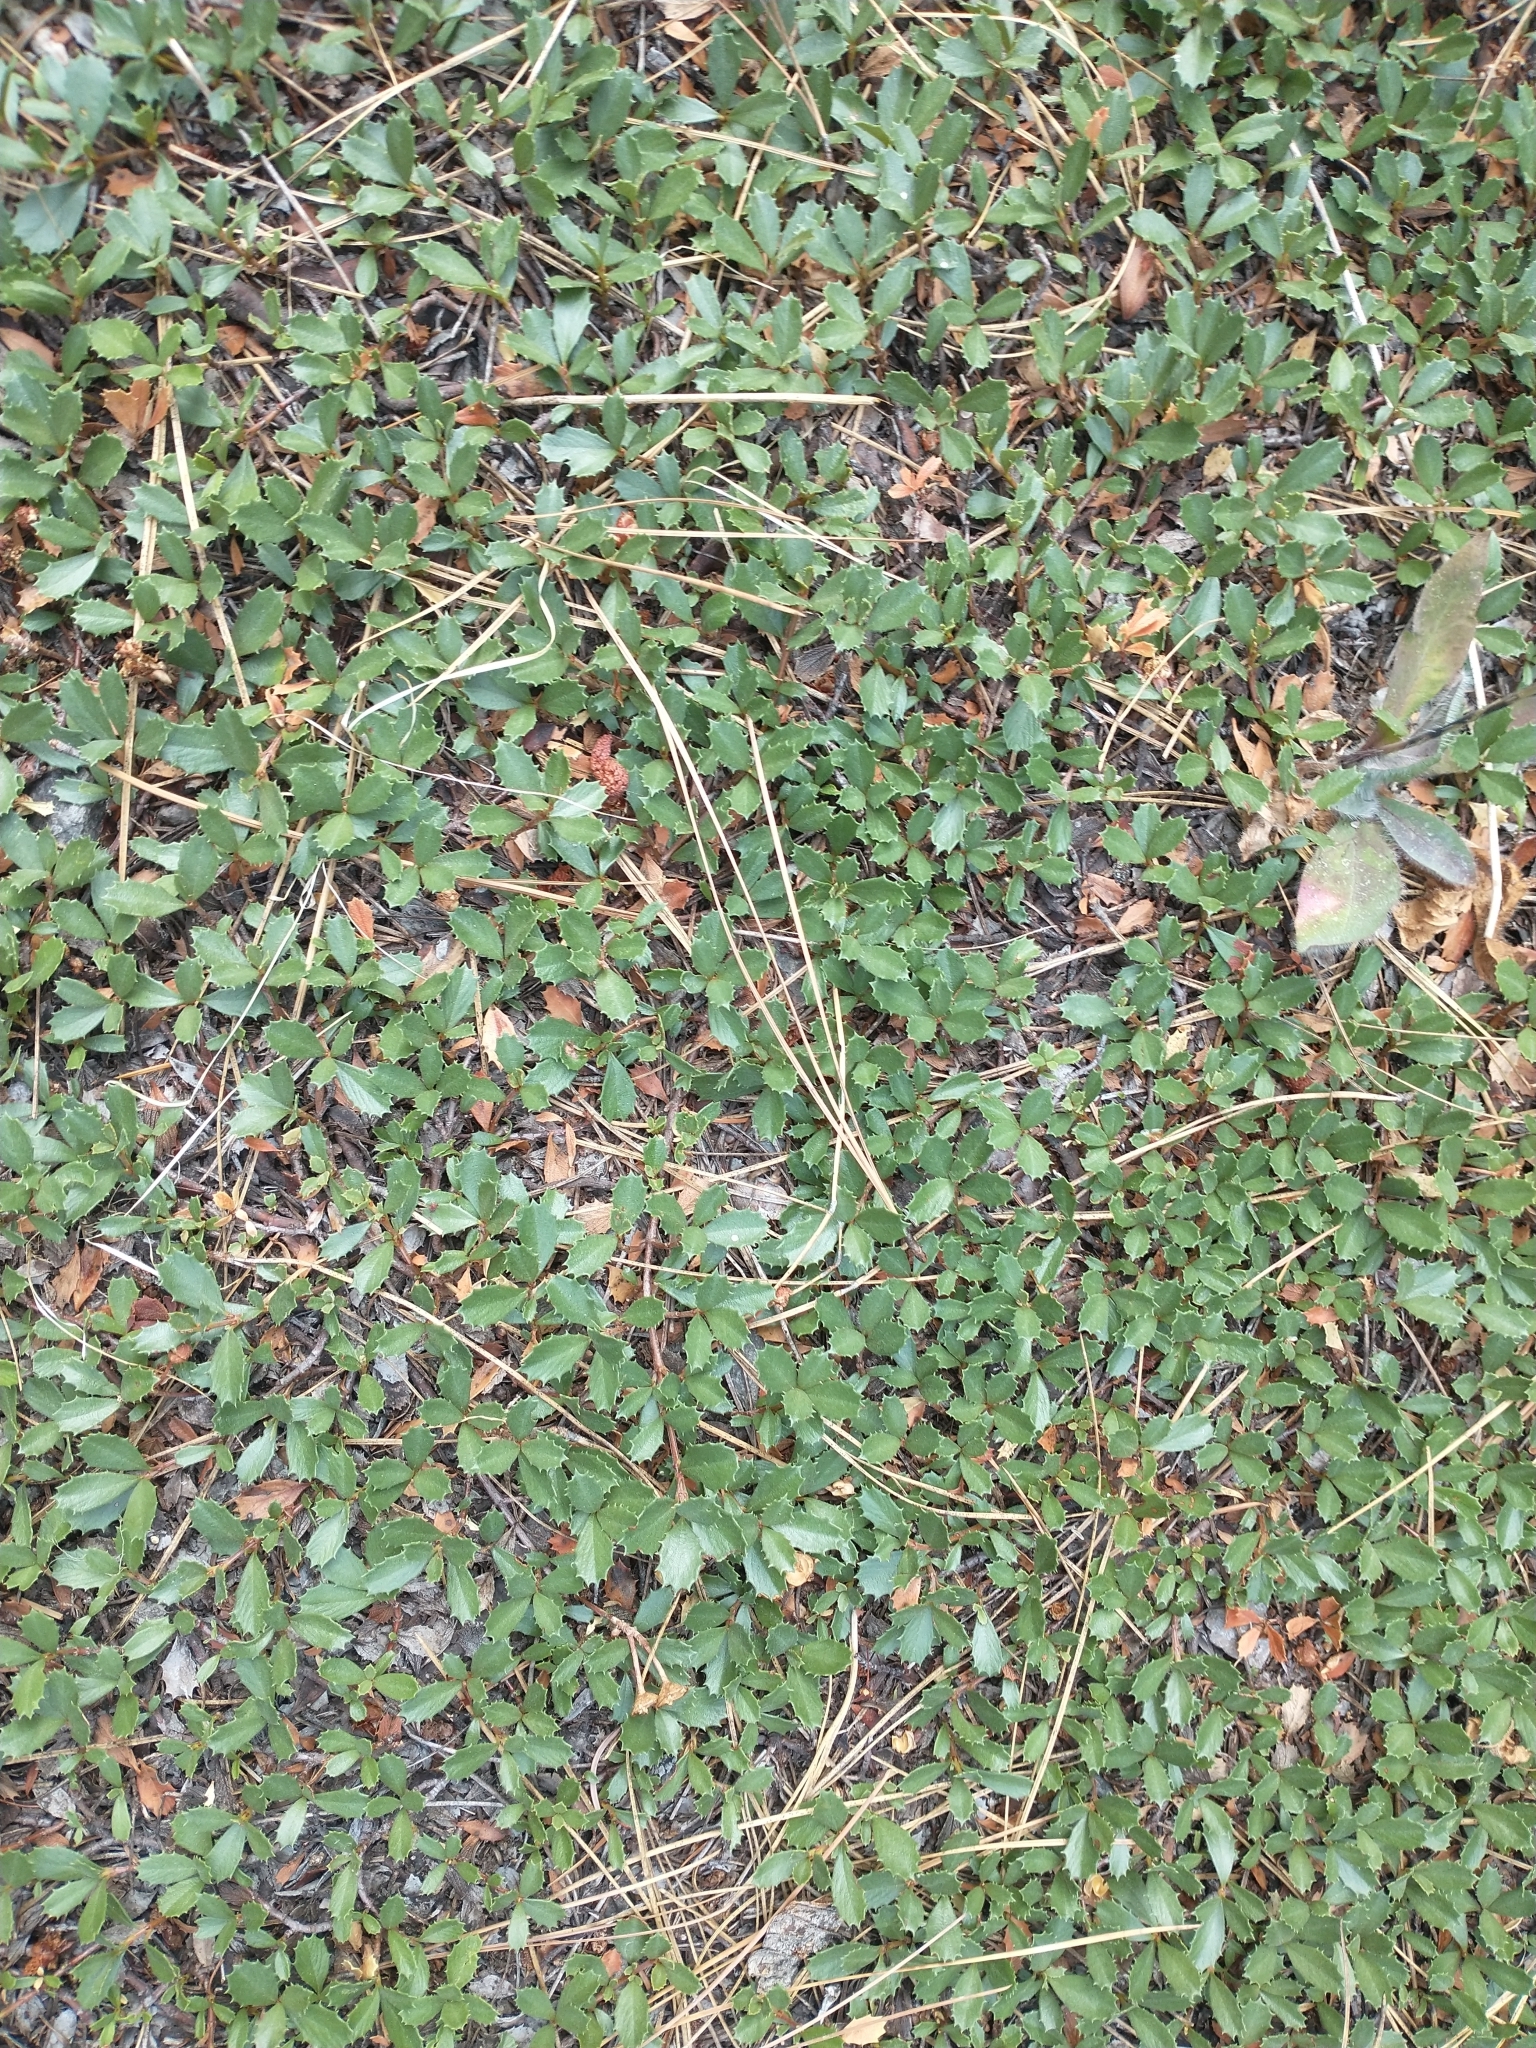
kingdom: Plantae
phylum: Tracheophyta
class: Magnoliopsida
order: Rosales
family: Rhamnaceae
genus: Ceanothus
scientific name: Ceanothus prostratus
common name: Mahala-mat
